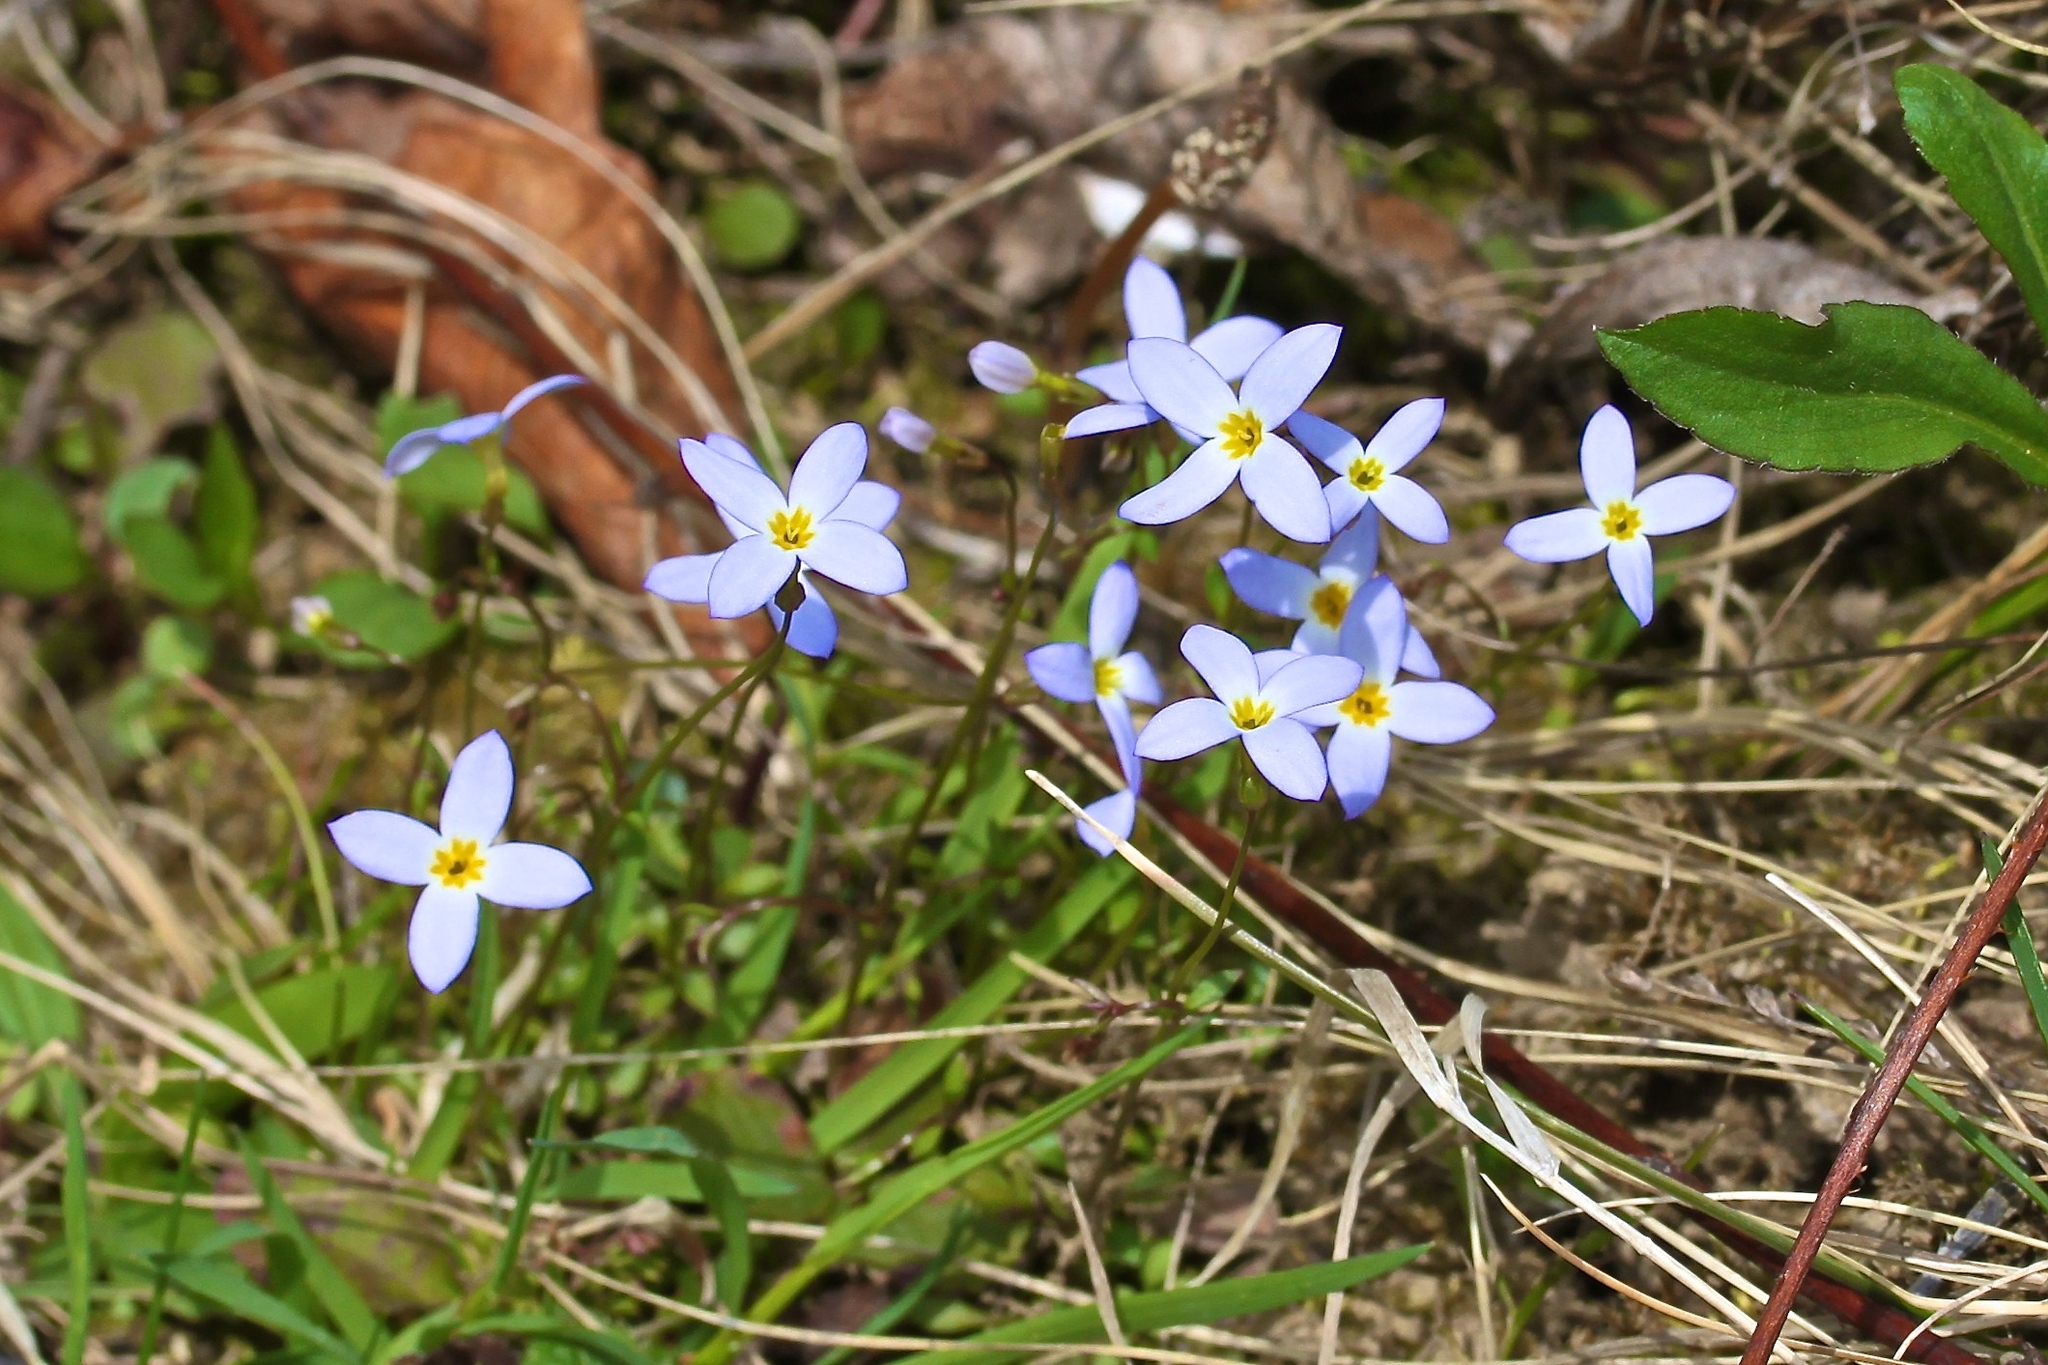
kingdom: Plantae
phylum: Tracheophyta
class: Magnoliopsida
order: Gentianales
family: Rubiaceae
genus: Houstonia
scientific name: Houstonia caerulea
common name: Bluets
